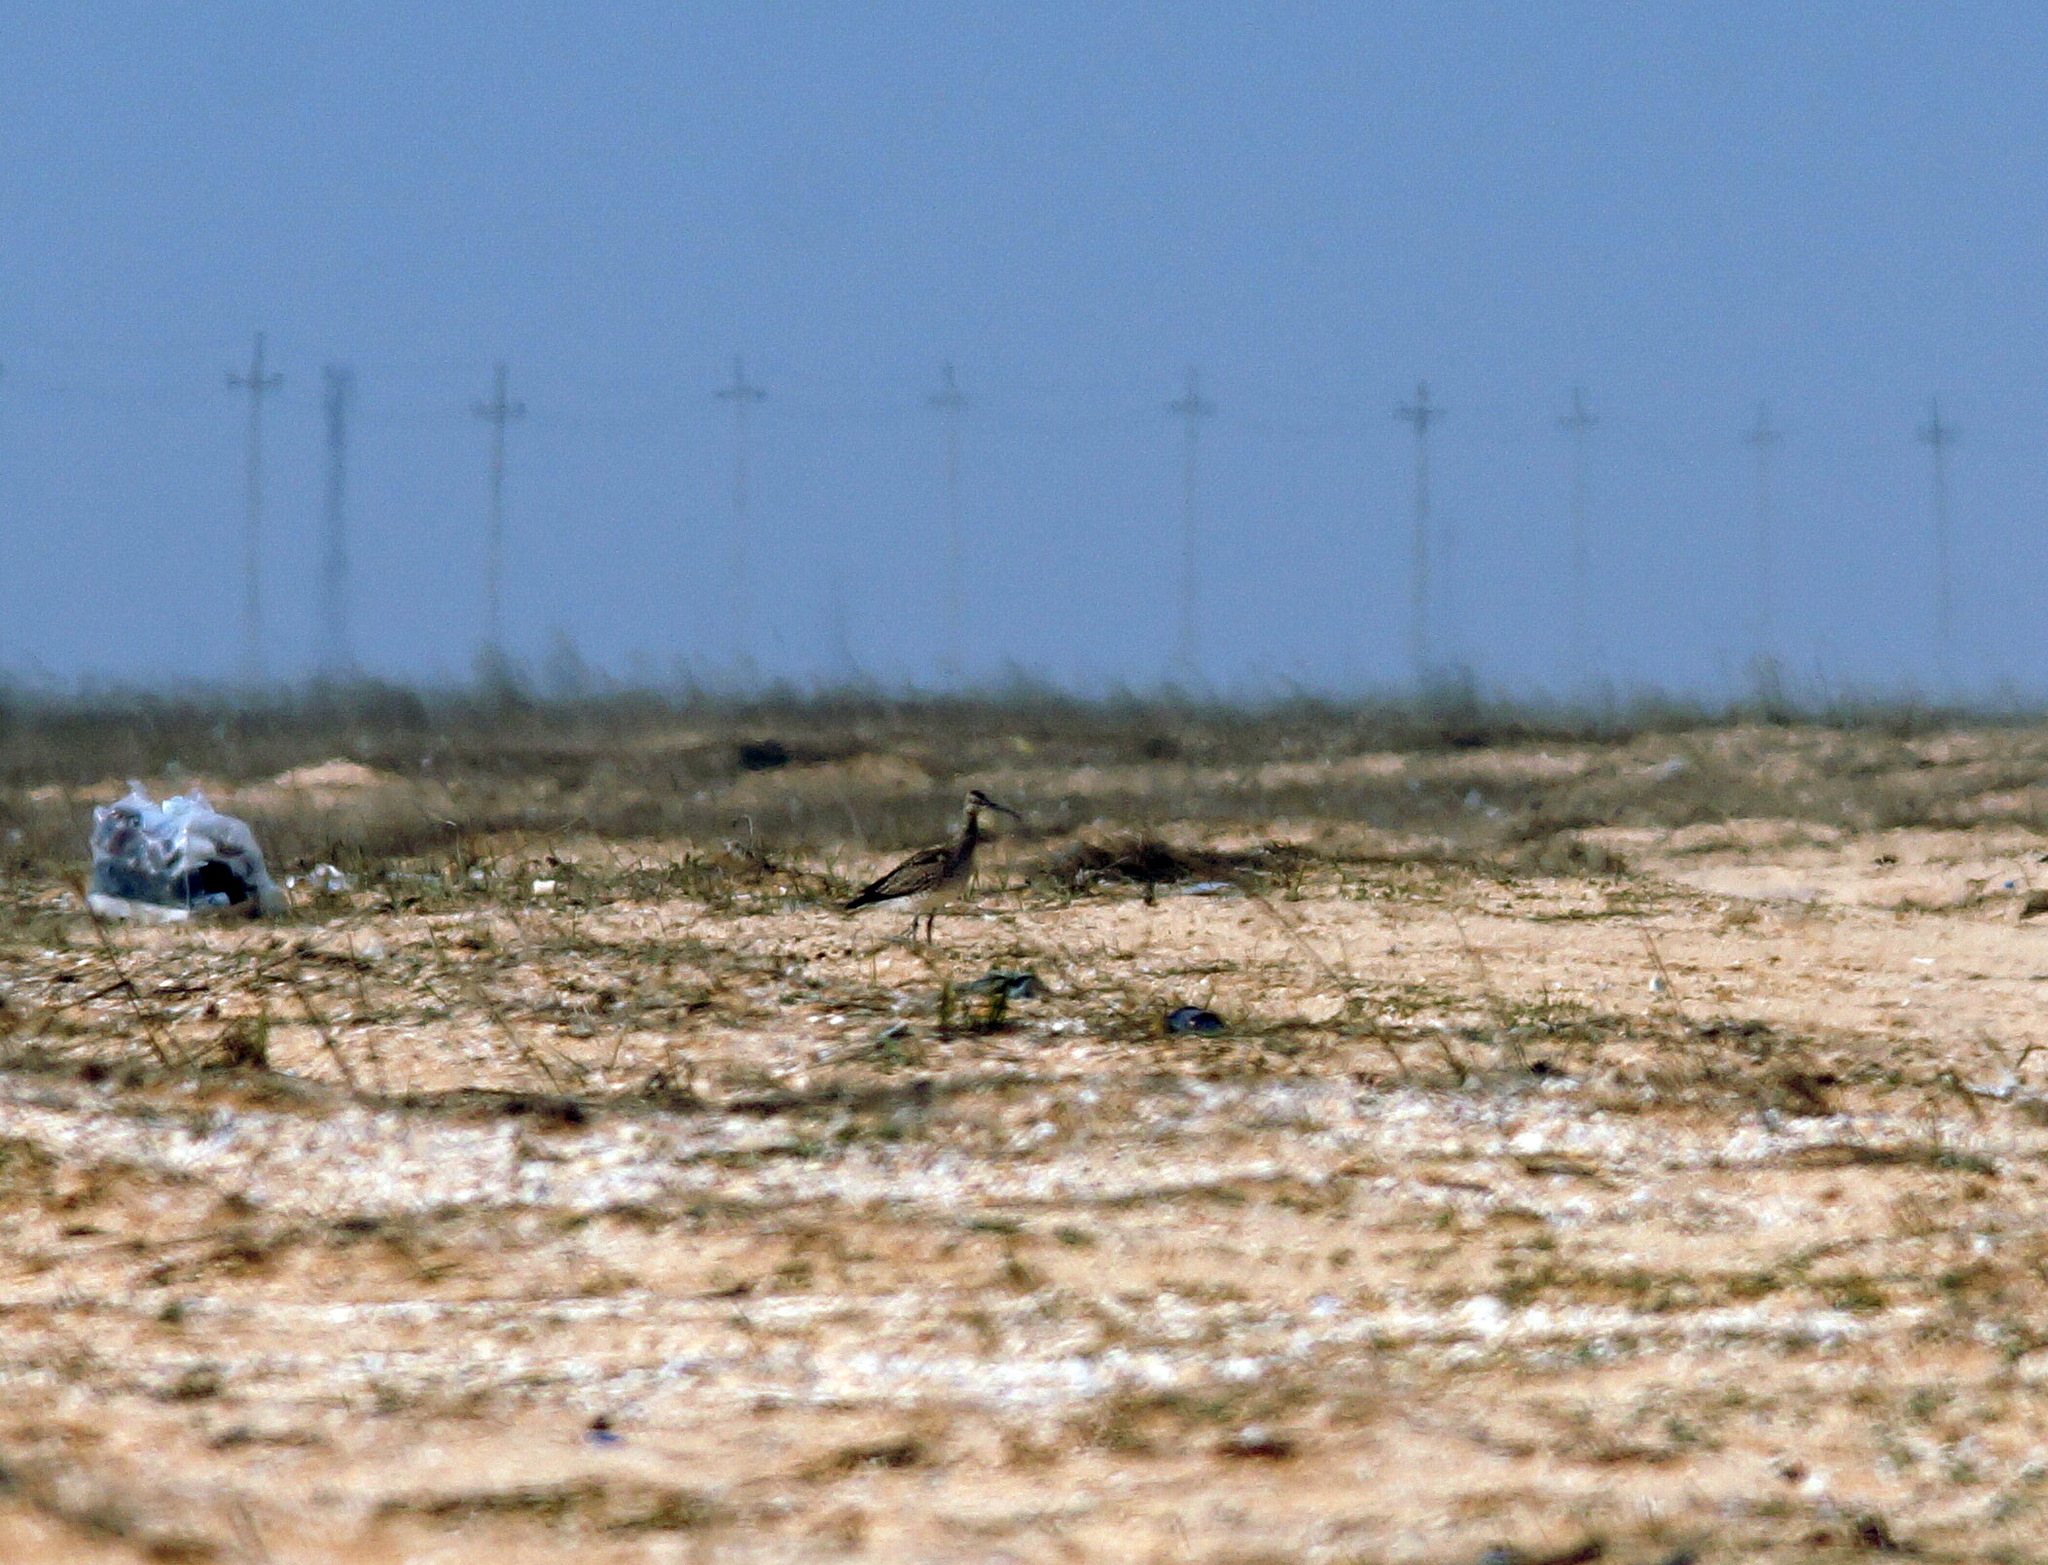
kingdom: Animalia
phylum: Chordata
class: Aves
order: Charadriiformes
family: Scolopacidae
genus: Numenius
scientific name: Numenius phaeopus
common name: Whimbrel
